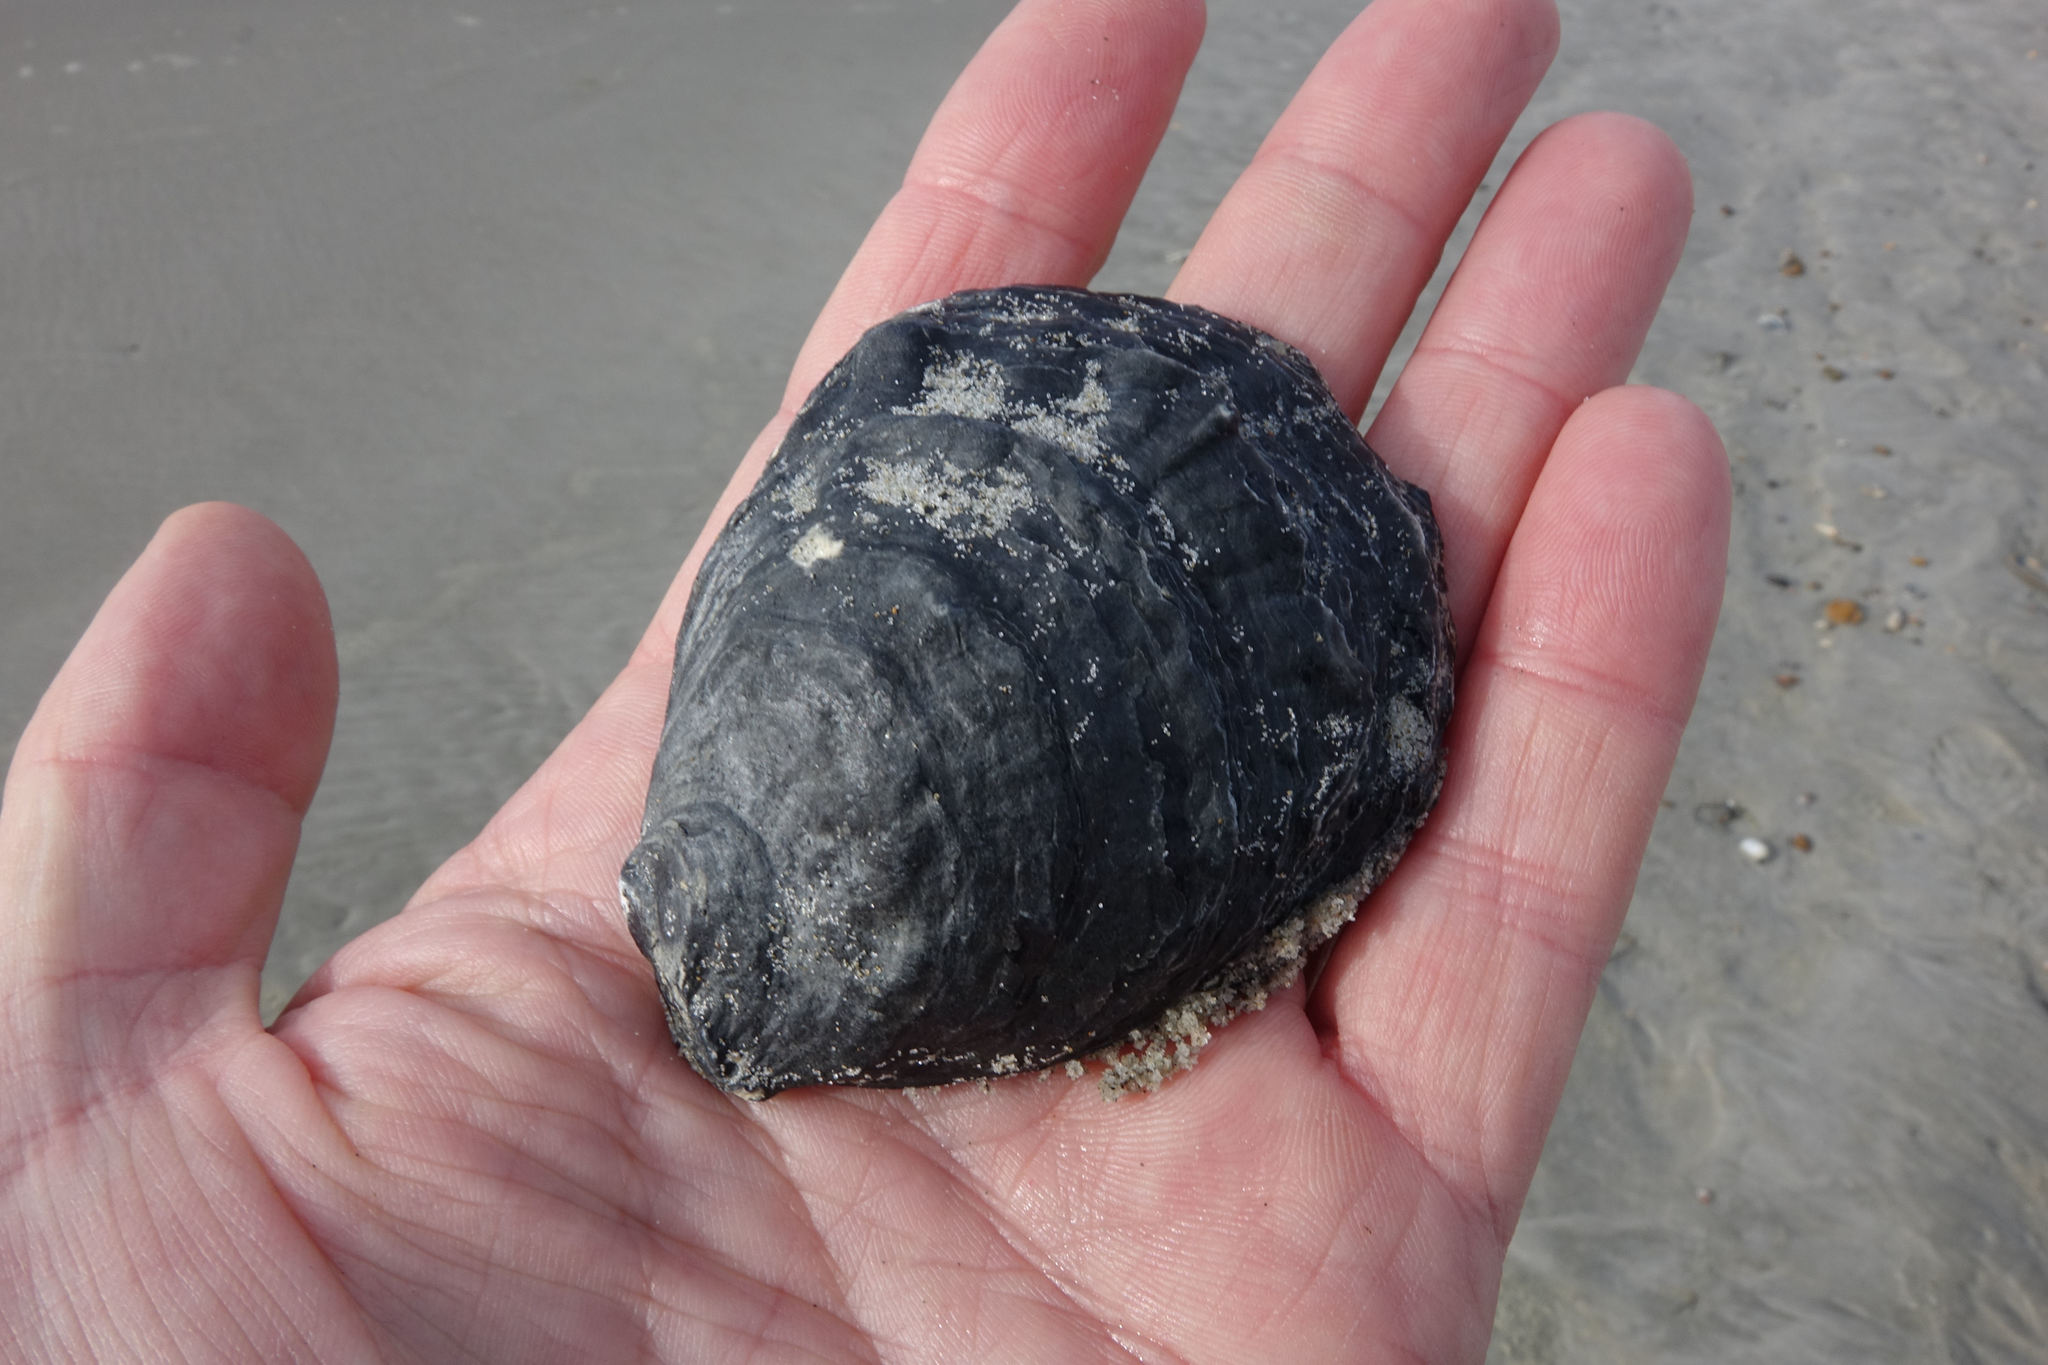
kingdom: Animalia
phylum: Mollusca
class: Bivalvia
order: Ostreida
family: Ostreidae
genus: Ostrea
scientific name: Ostrea chilensis
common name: Chilean oyster
